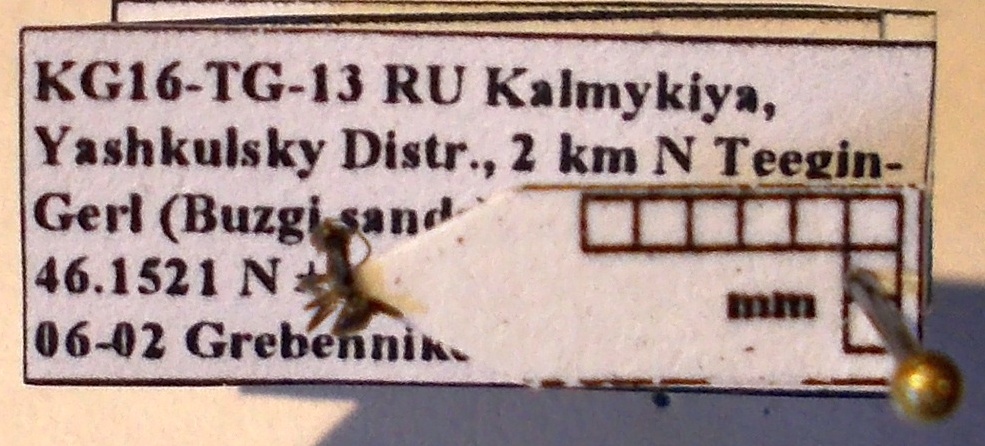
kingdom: Animalia
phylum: Arthropoda
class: Insecta
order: Hymenoptera
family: Formicidae
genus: Tapinoma
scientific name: Tapinoma erraticum
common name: Erratic ant
